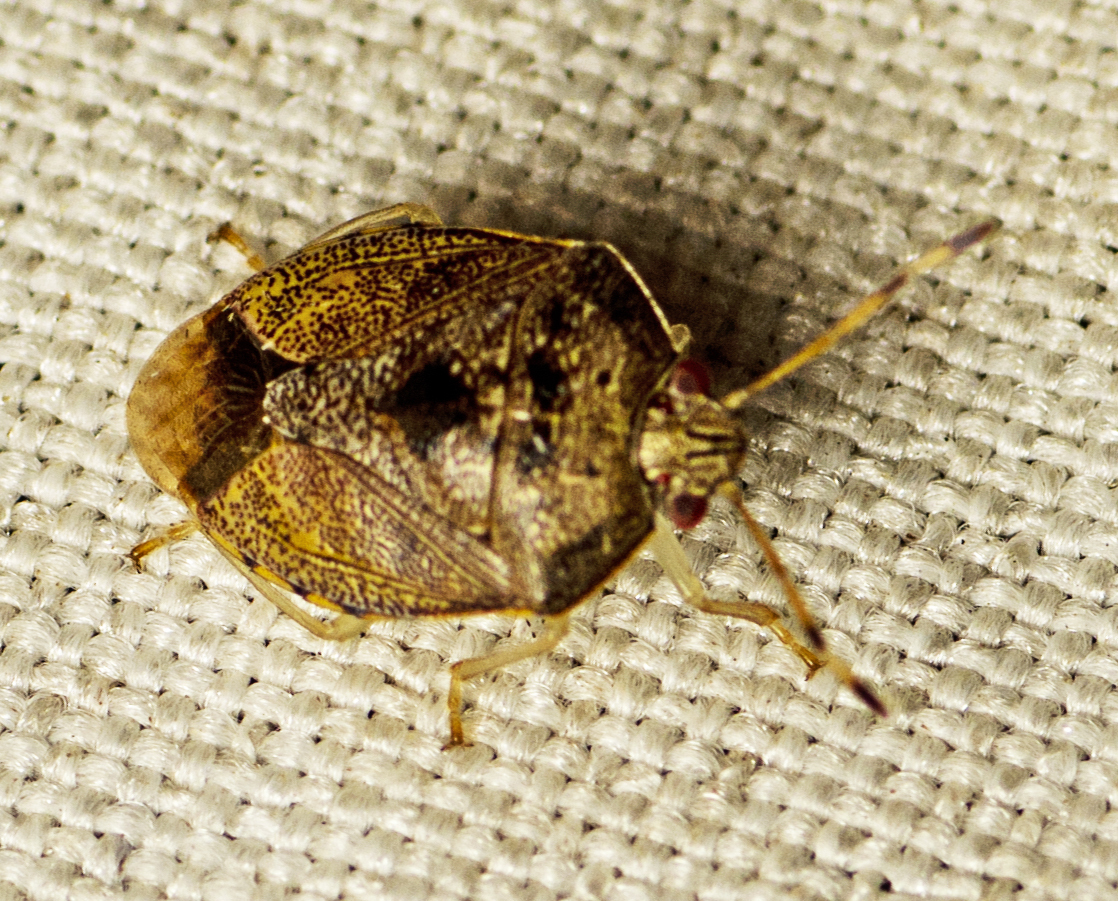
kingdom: Animalia
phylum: Arthropoda
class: Insecta
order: Hemiptera
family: Pentatomidae
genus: Menida
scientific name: Menida
